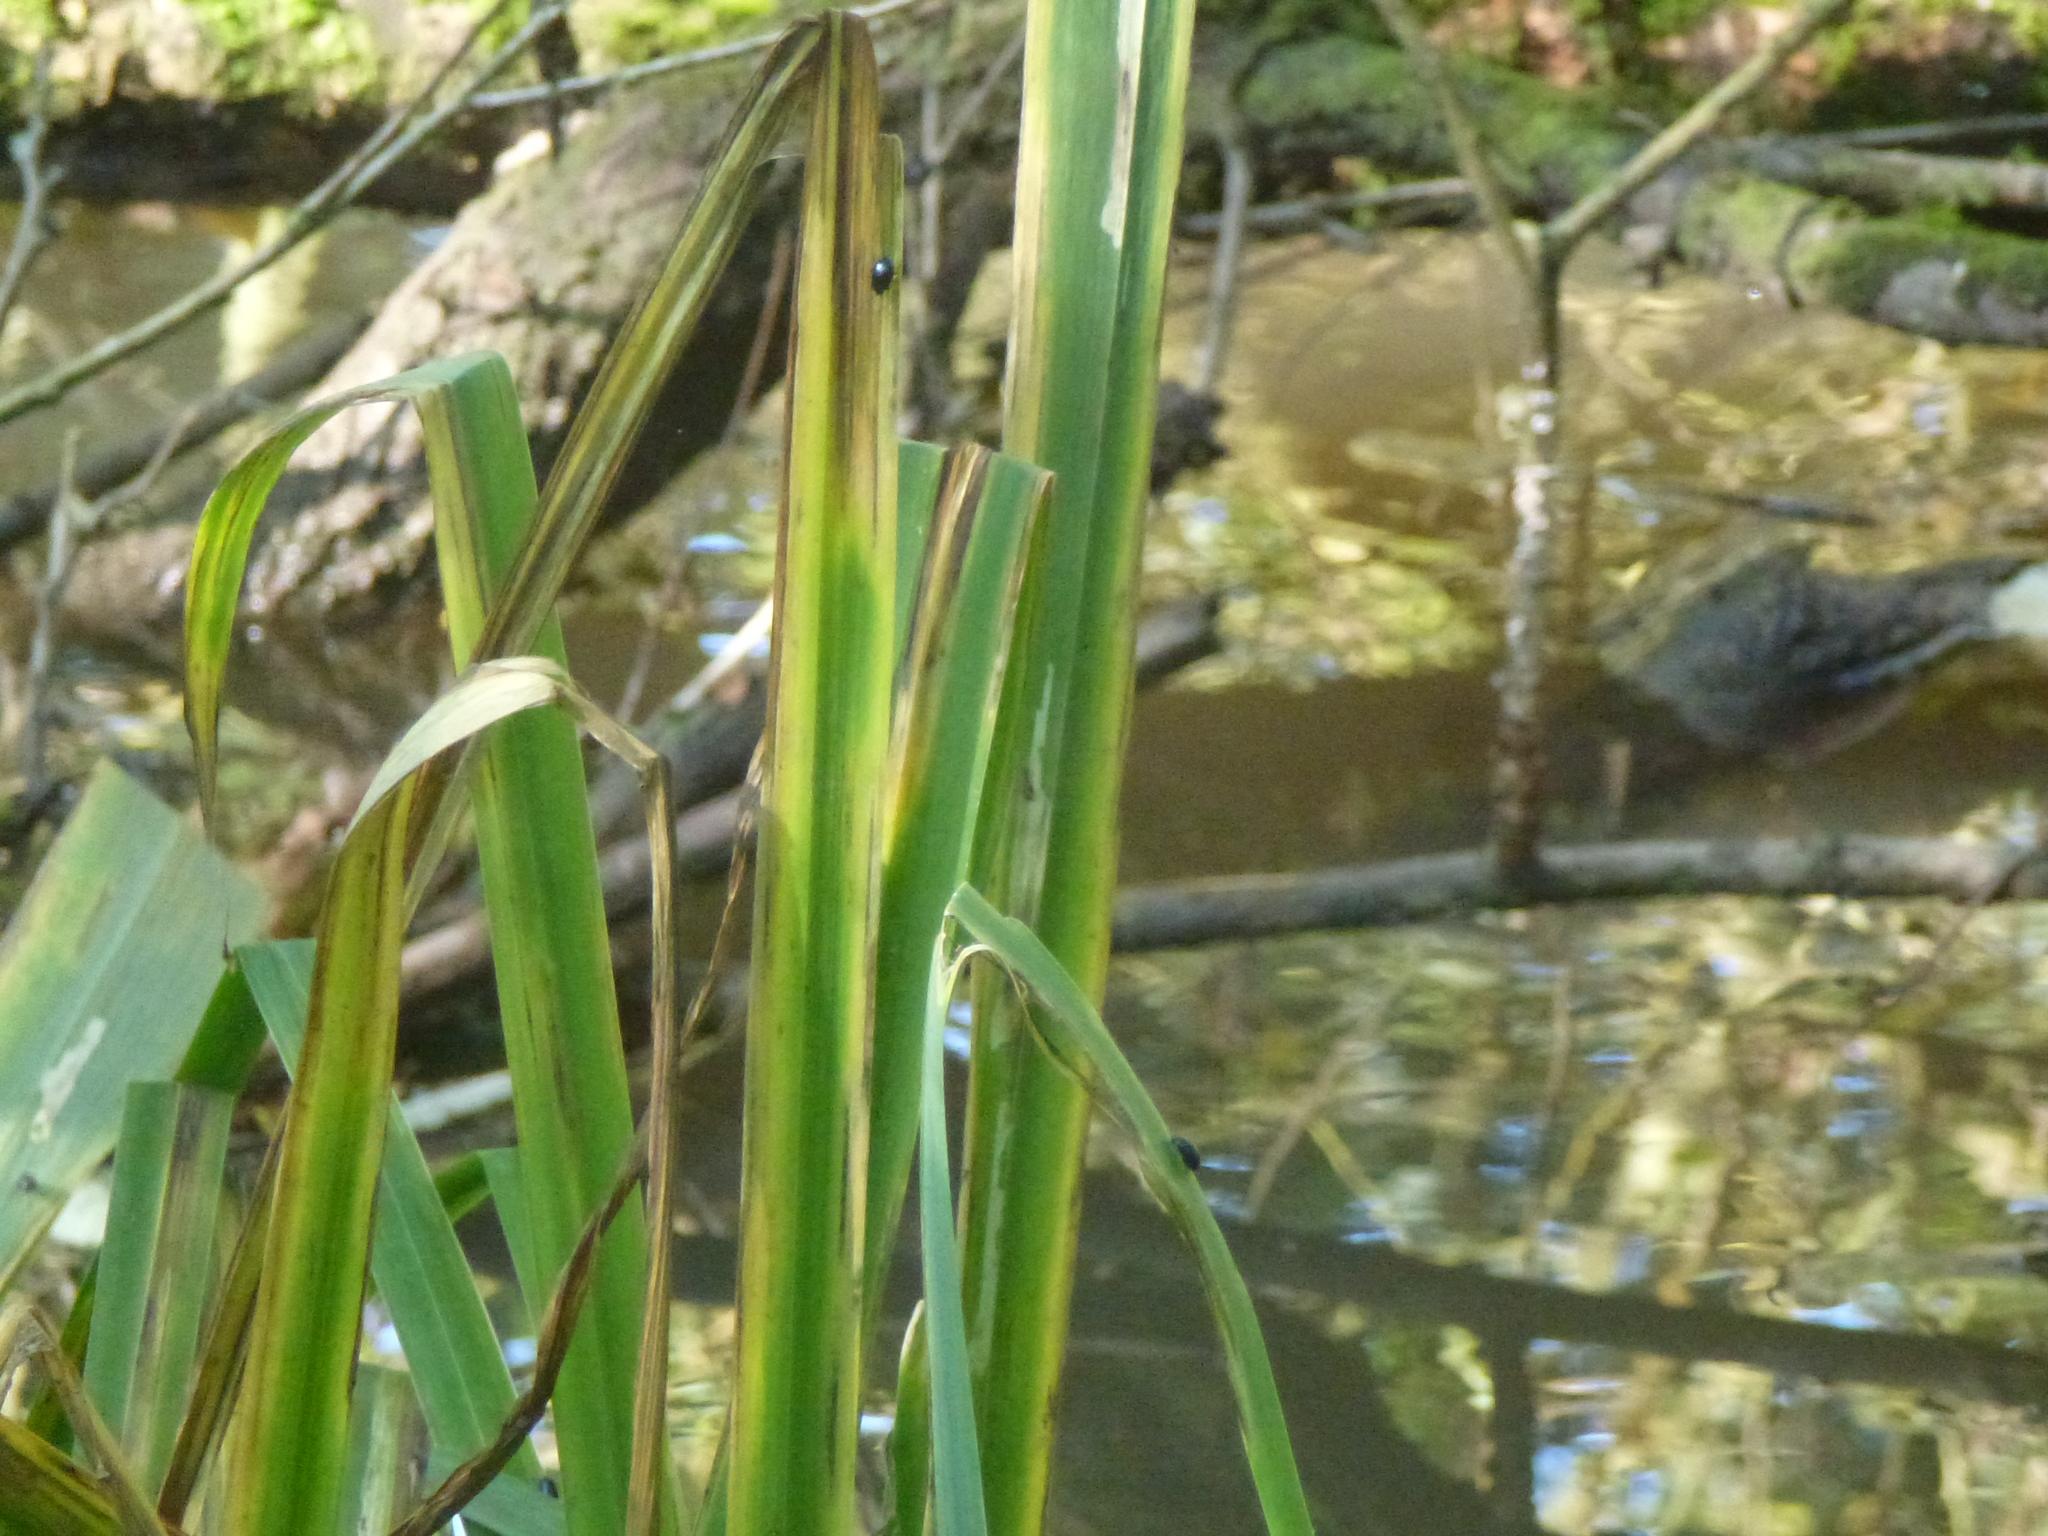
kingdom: Plantae
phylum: Tracheophyta
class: Liliopsida
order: Asparagales
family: Iridaceae
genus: Iris
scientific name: Iris pseudacorus
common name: Yellow flag
